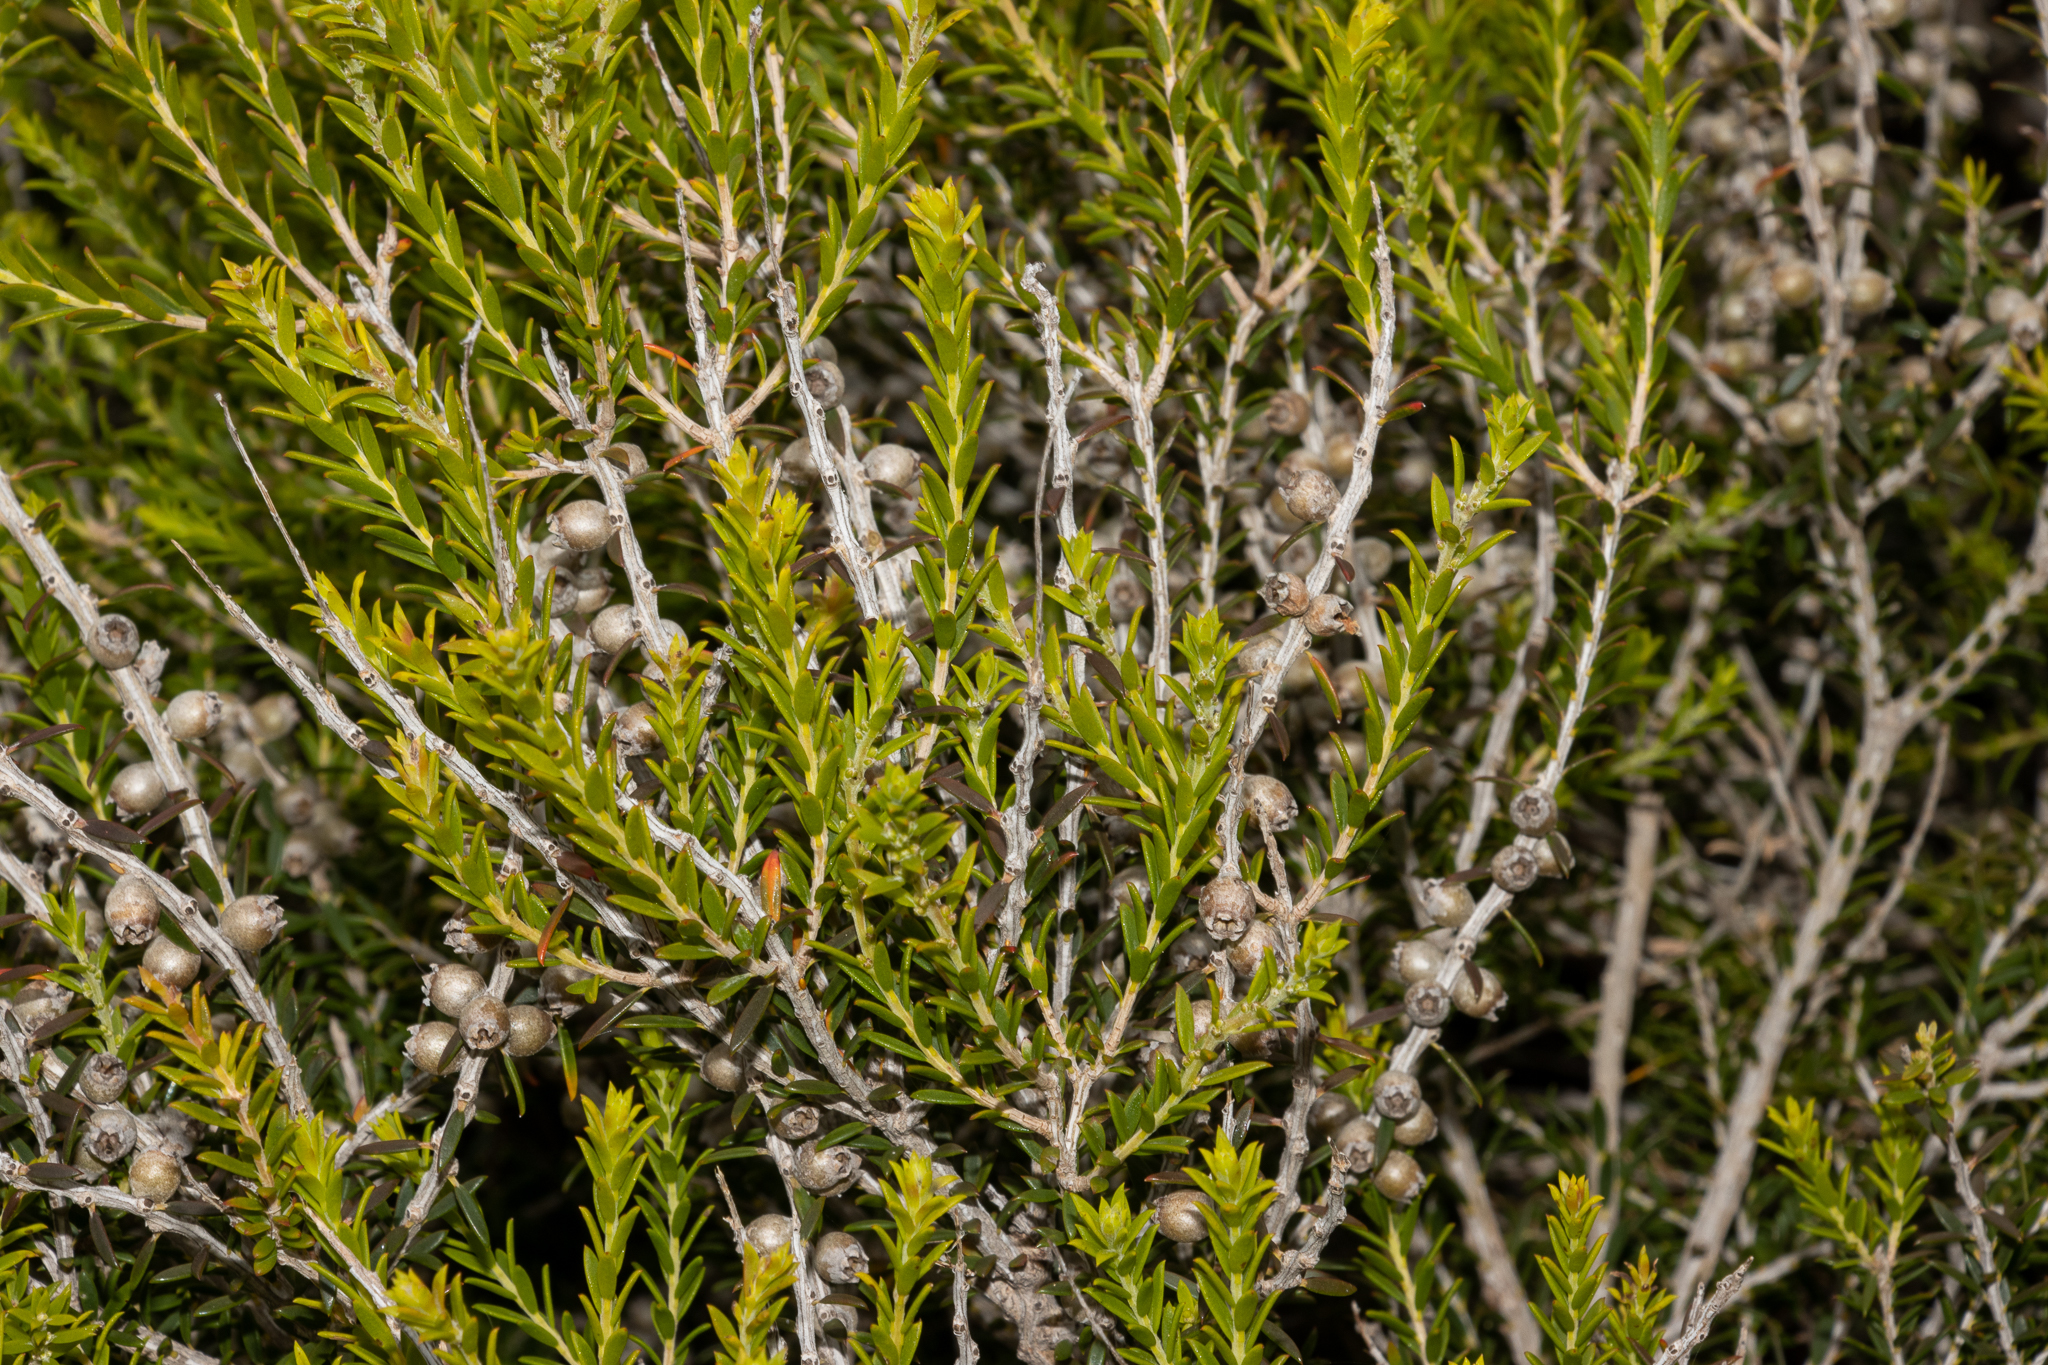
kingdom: Plantae
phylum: Tracheophyta
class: Magnoliopsida
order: Myrtales
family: Myrtaceae
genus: Melaleuca
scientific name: Melaleuca lanceolata
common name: Rottnest island teatree
